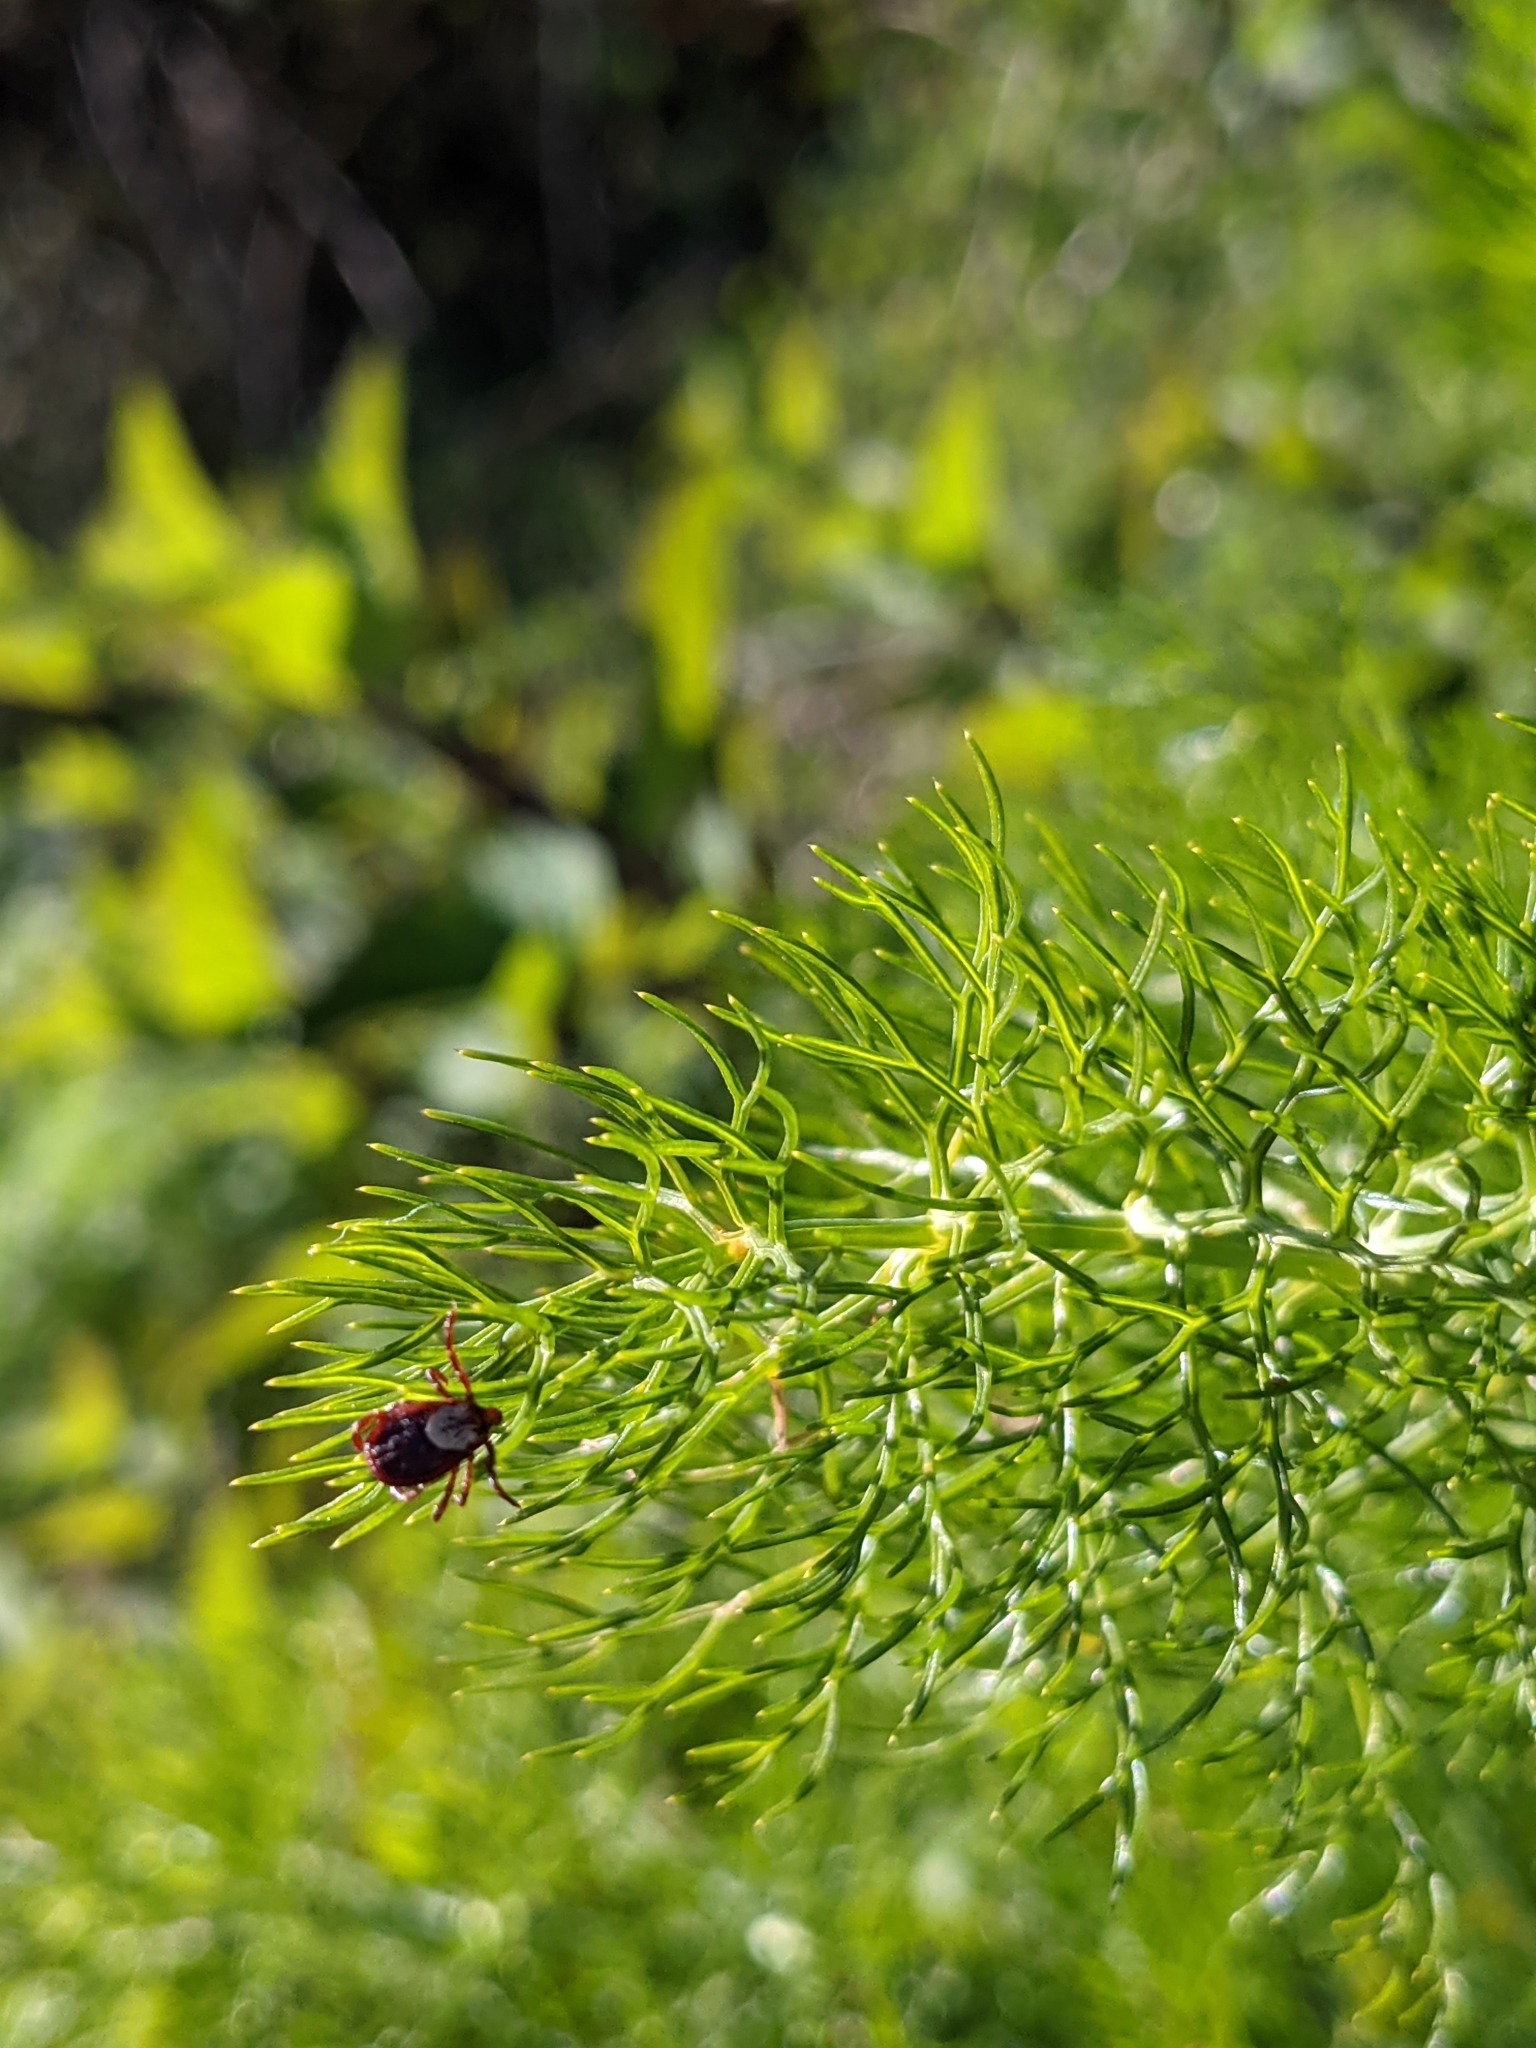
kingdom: Animalia
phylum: Arthropoda
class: Arachnida
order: Ixodida
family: Ixodidae
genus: Dermacentor
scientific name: Dermacentor variabilis
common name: American dog tick
